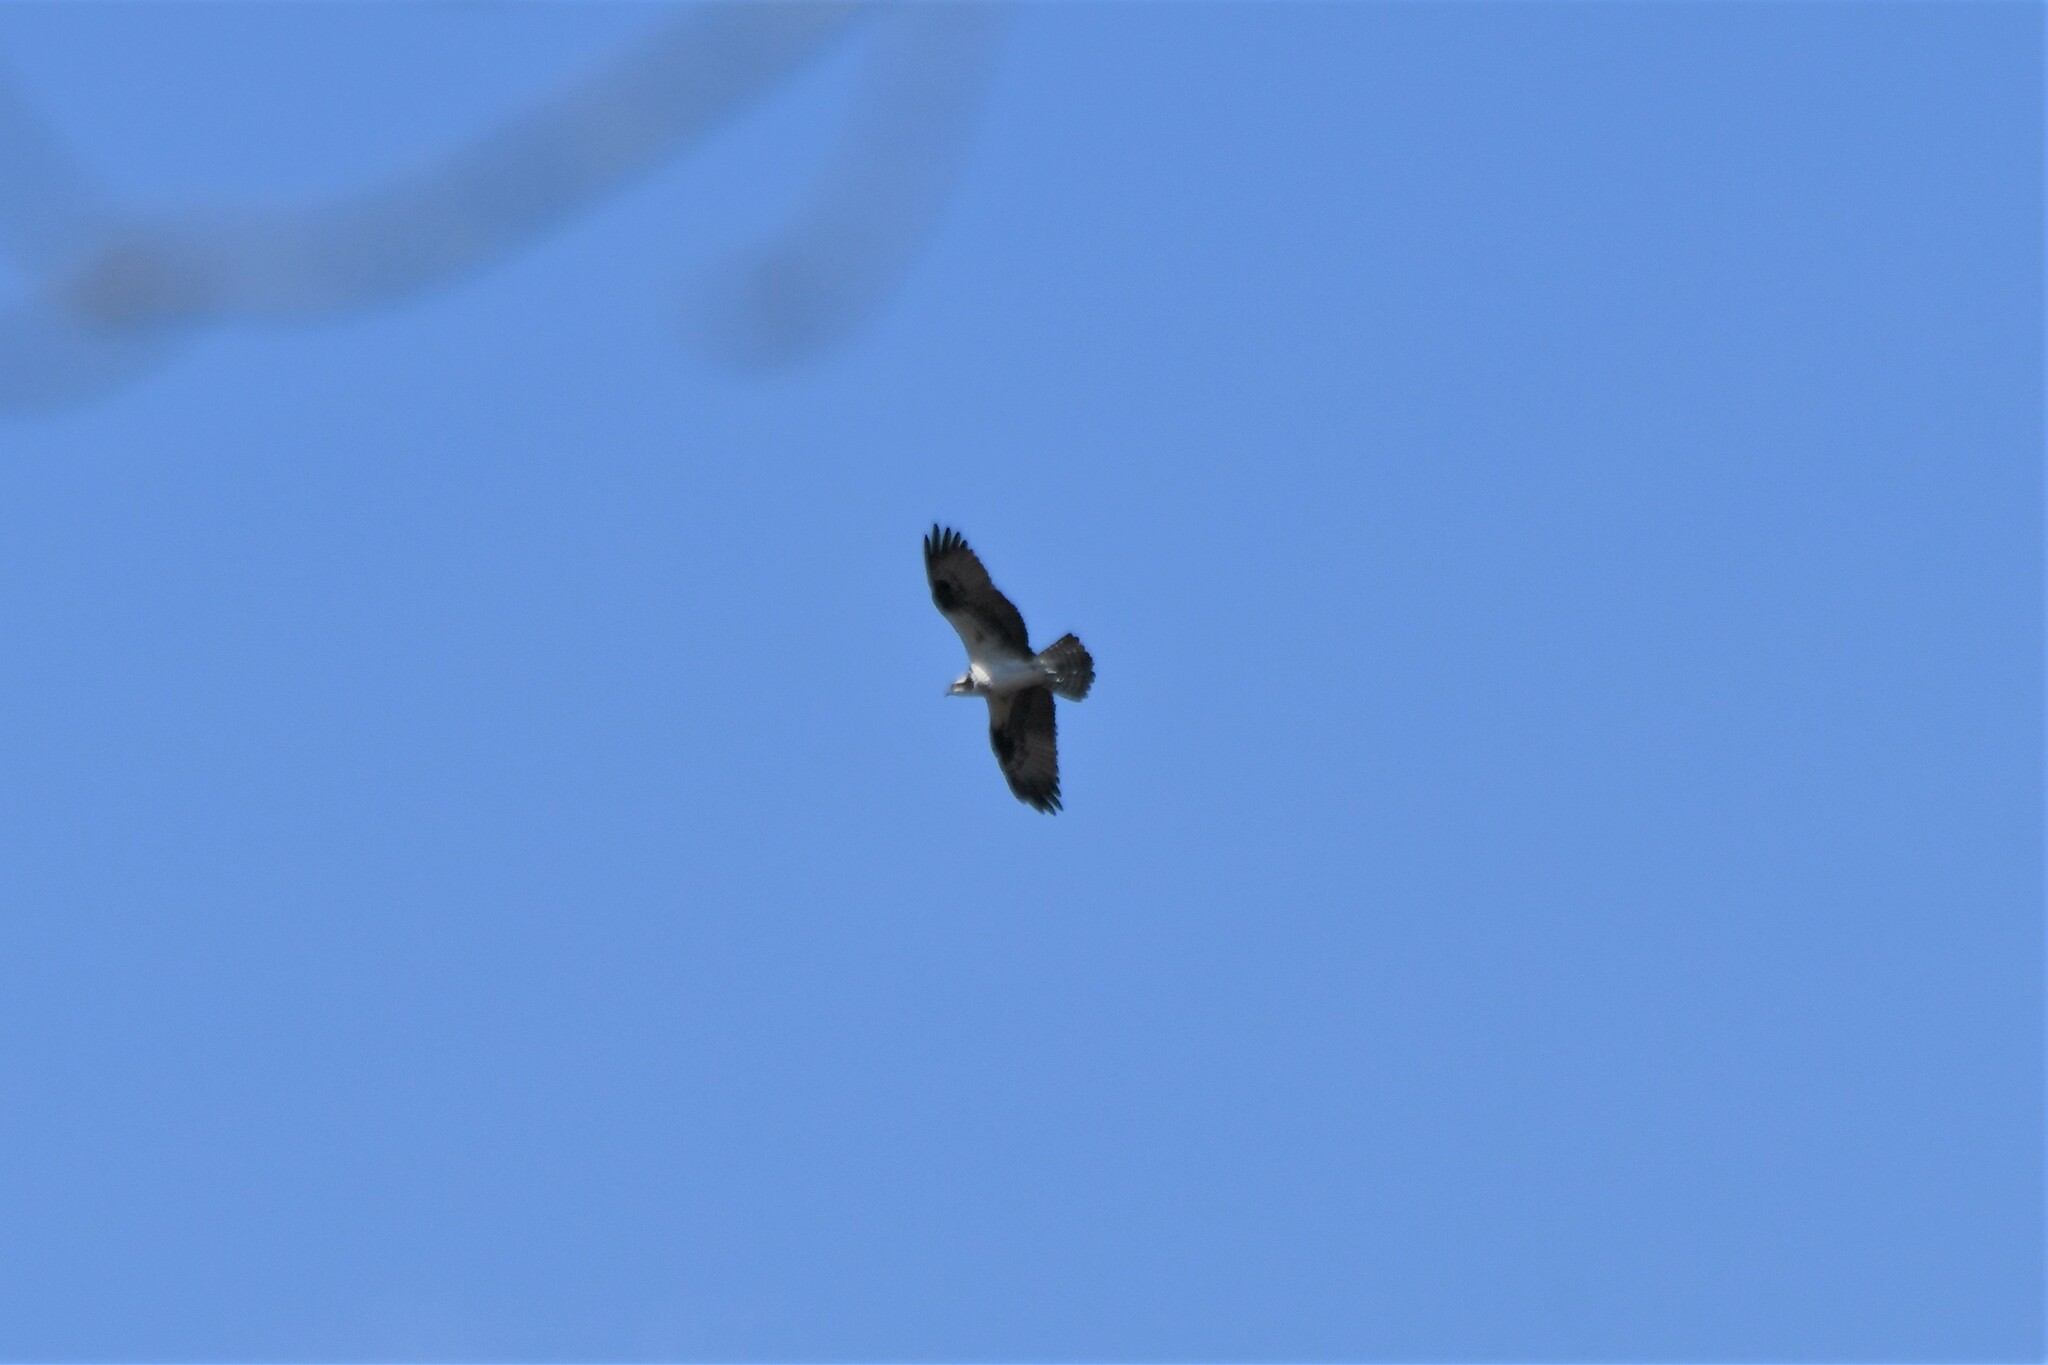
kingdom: Animalia
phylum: Chordata
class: Aves
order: Accipitriformes
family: Pandionidae
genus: Pandion
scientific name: Pandion haliaetus
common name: Osprey
